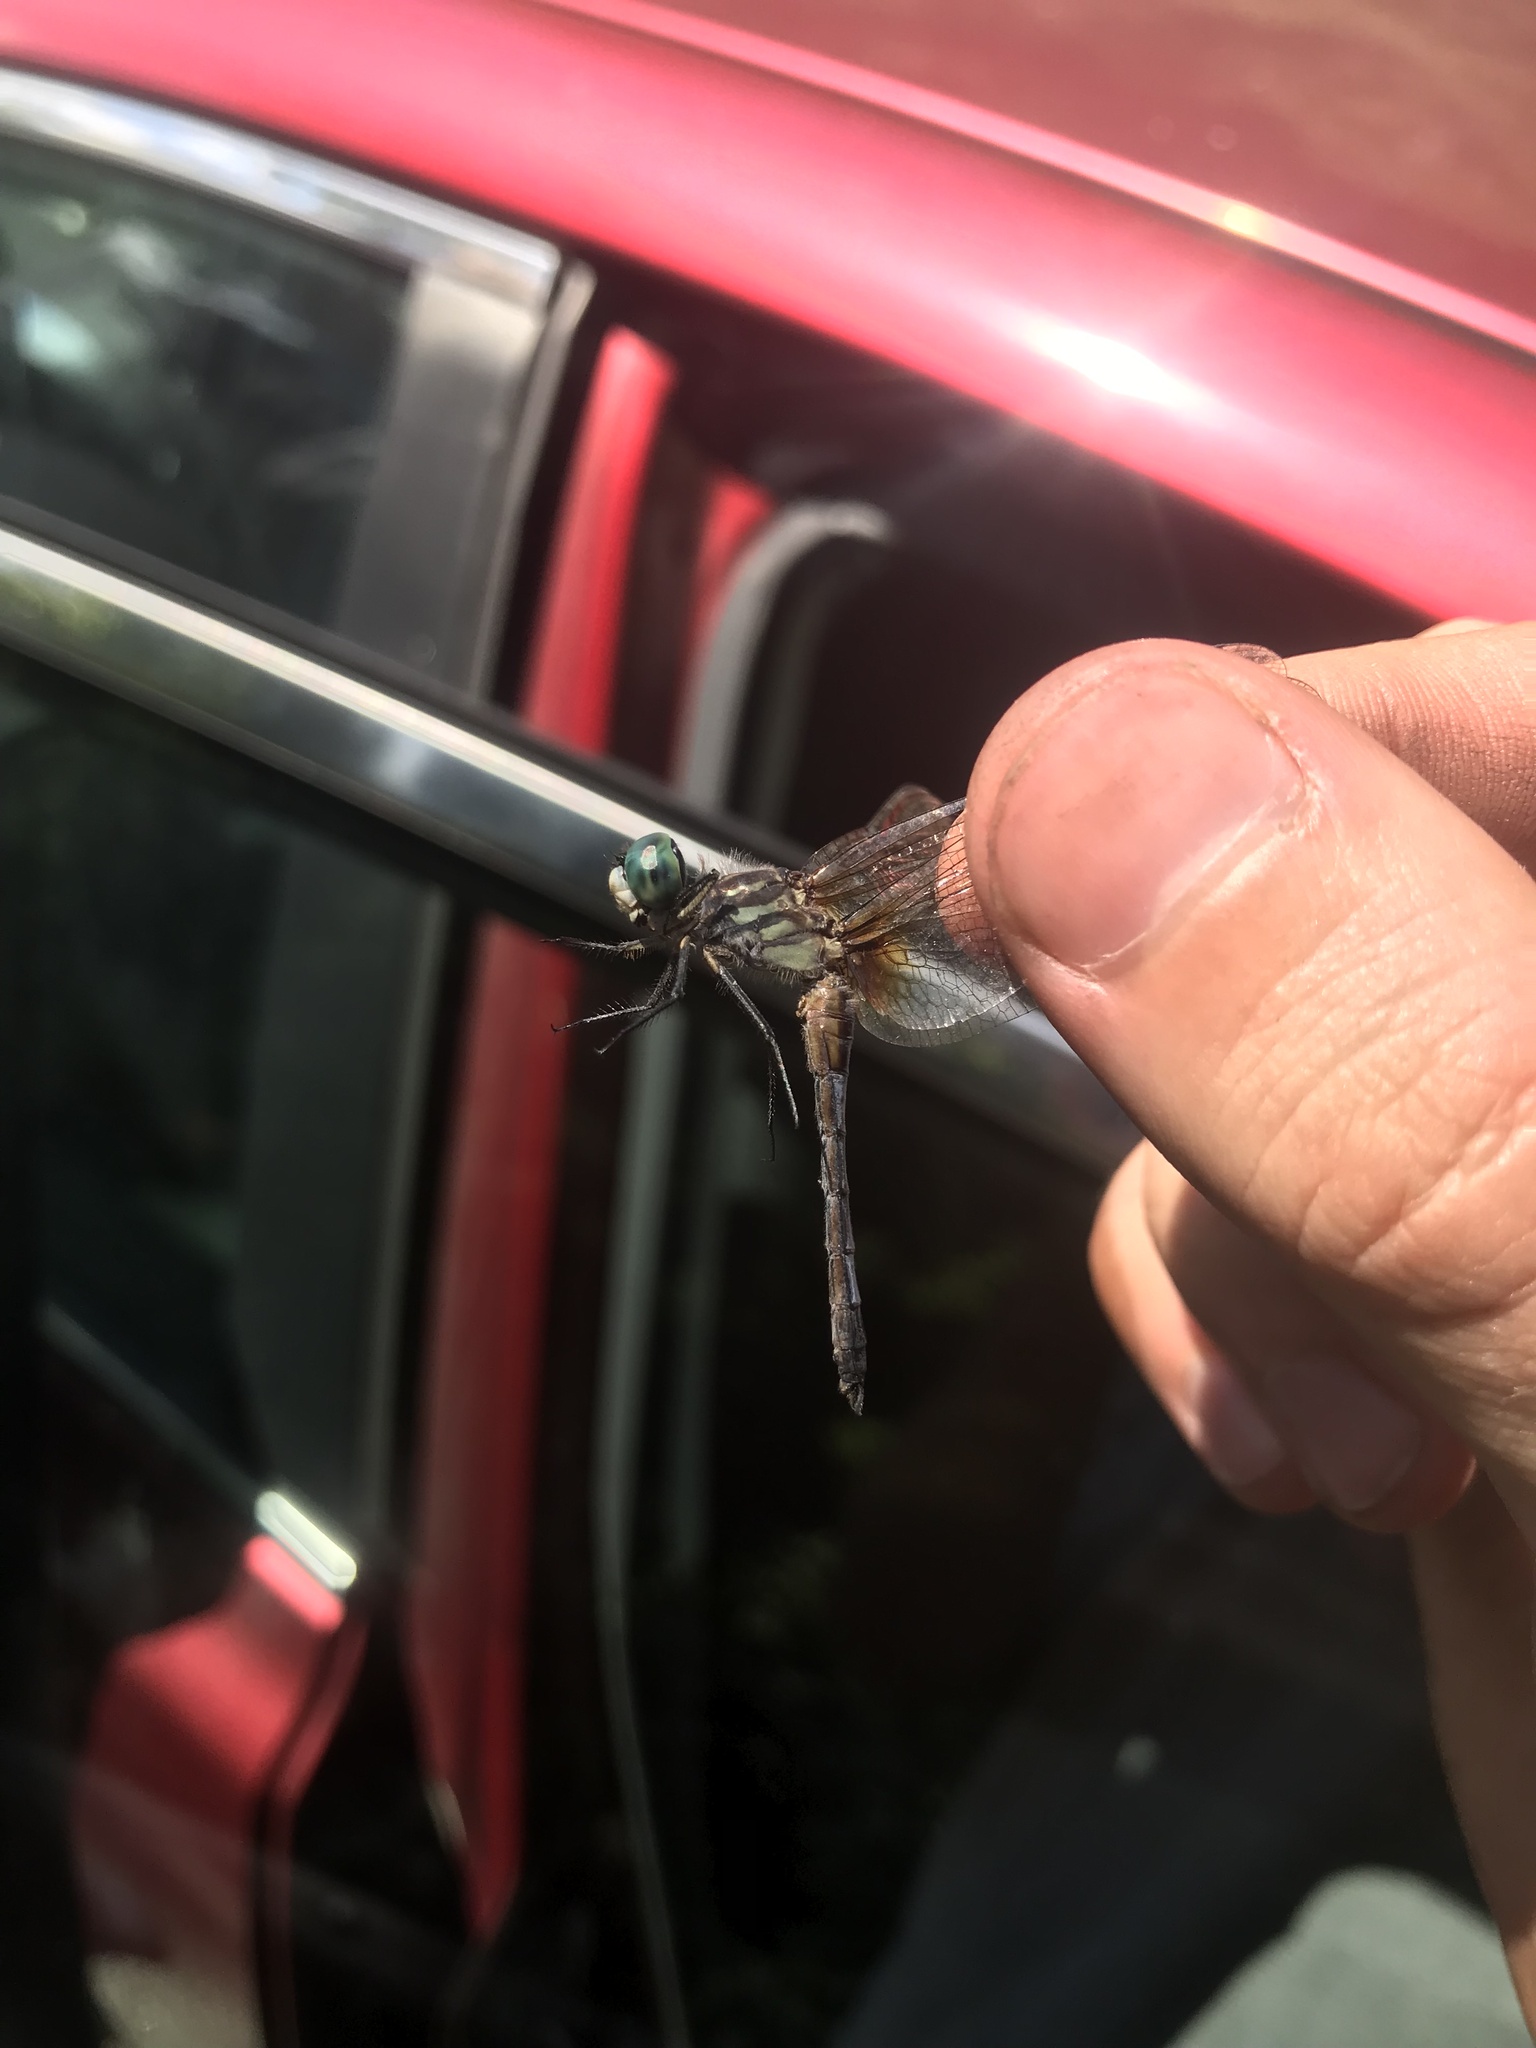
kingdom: Animalia
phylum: Arthropoda
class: Insecta
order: Odonata
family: Libellulidae
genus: Pachydiplax
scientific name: Pachydiplax longipennis
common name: Blue dasher
